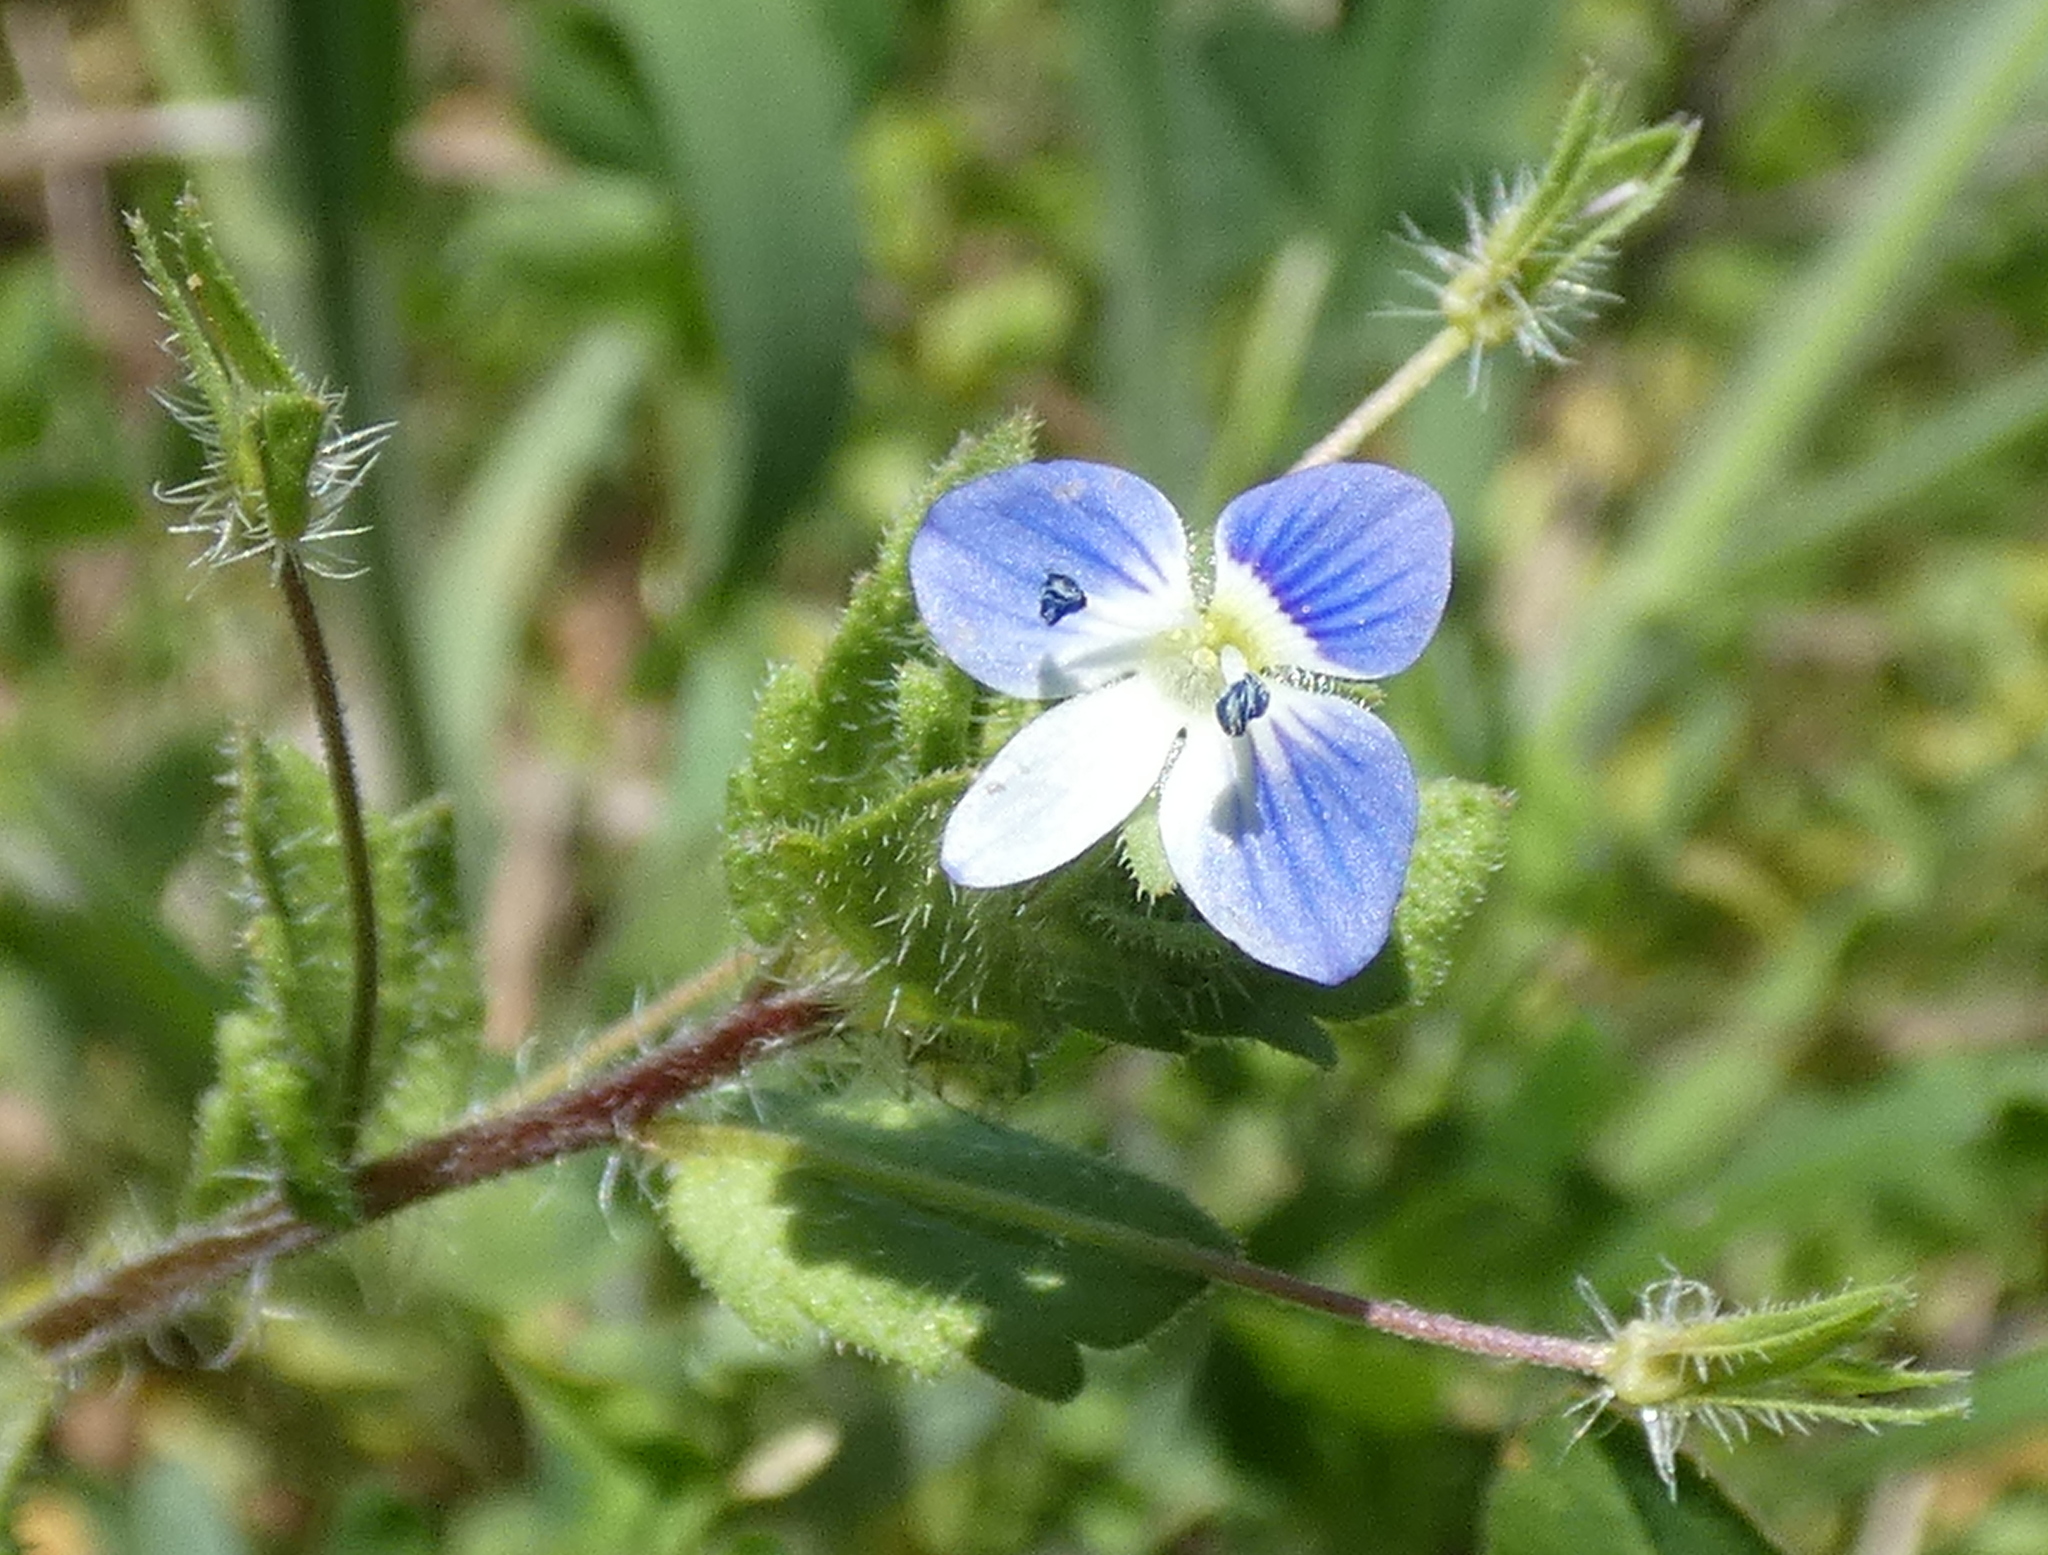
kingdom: Plantae
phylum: Tracheophyta
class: Magnoliopsida
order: Lamiales
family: Plantaginaceae
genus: Veronica
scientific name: Veronica persica
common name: Common field-speedwell
